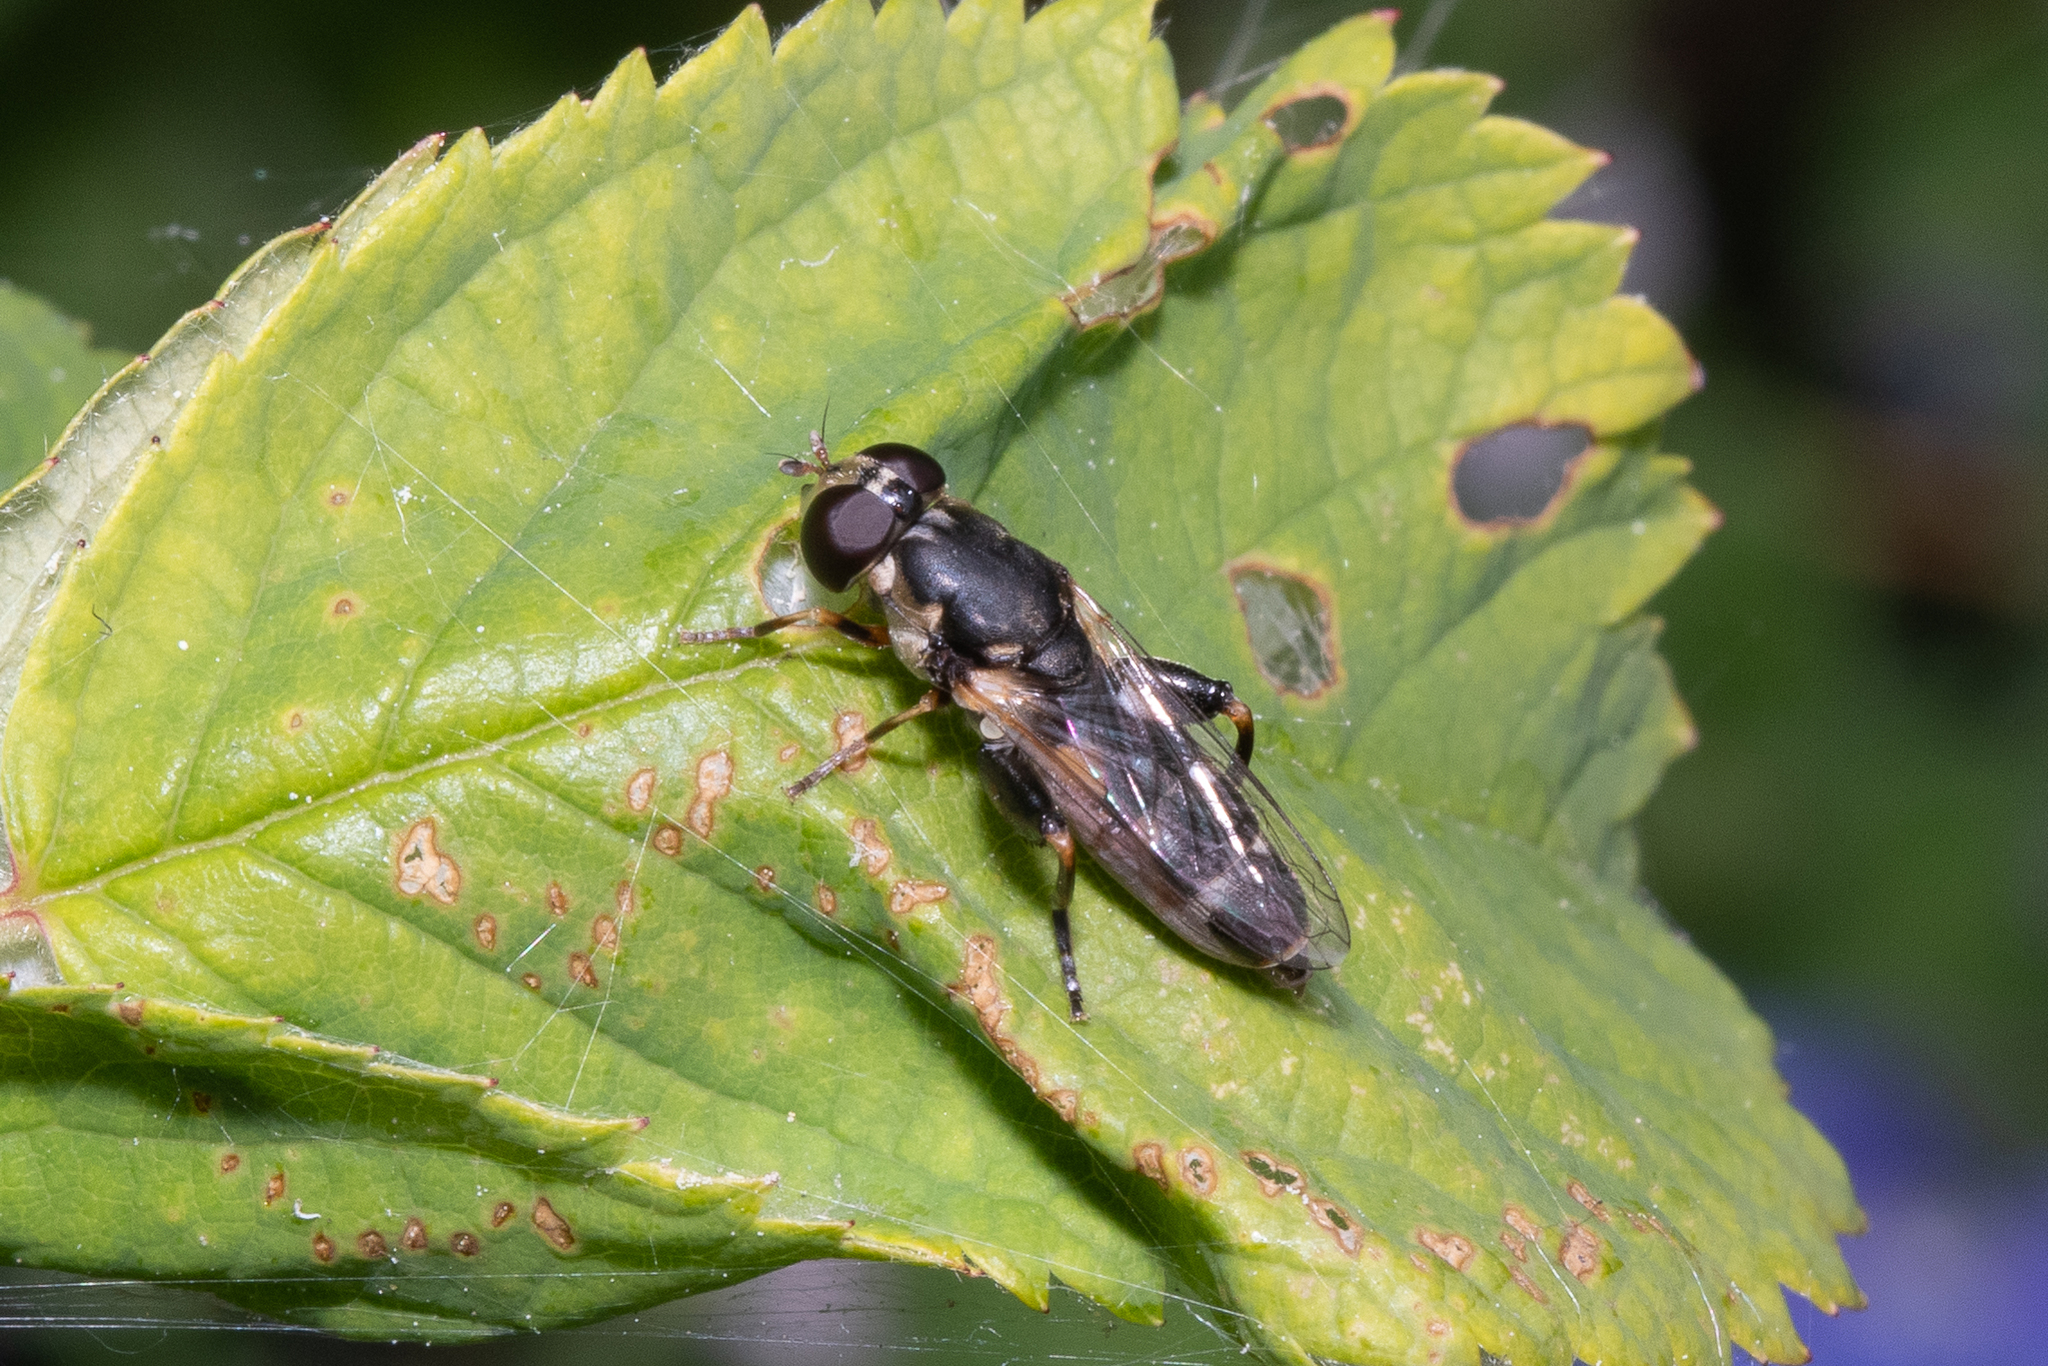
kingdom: Animalia
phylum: Arthropoda
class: Insecta
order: Diptera
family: Syrphidae
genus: Syritta
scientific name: Syritta pipiens
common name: Hover fly
